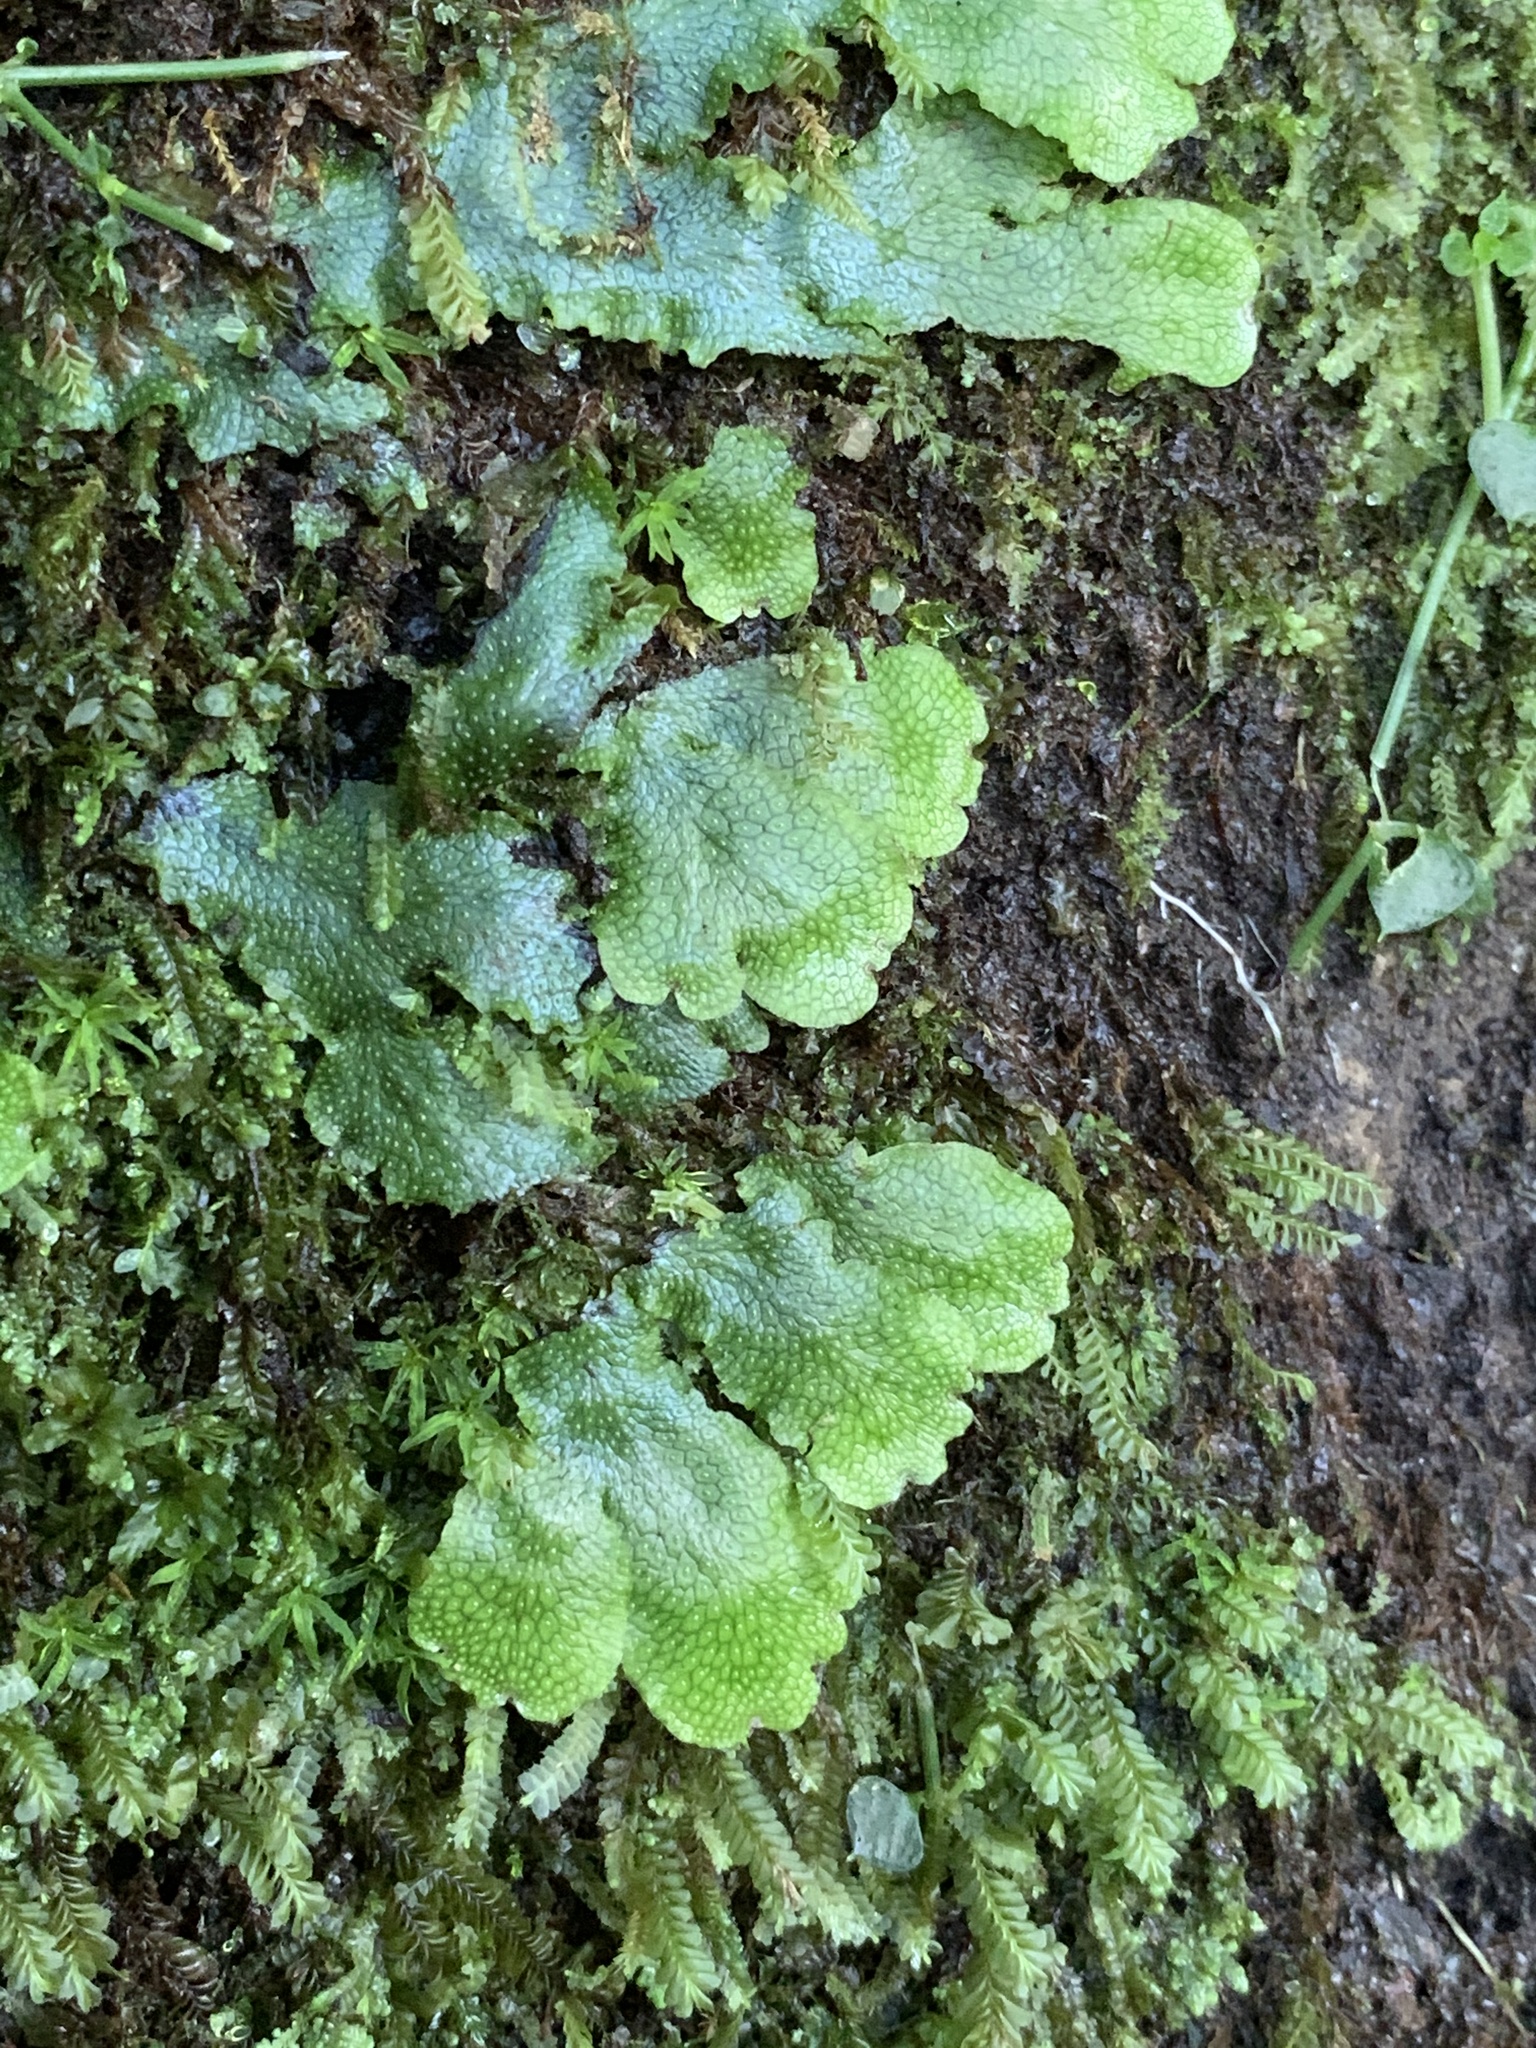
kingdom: Plantae
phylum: Marchantiophyta
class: Marchantiopsida
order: Marchantiales
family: Conocephalaceae
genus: Conocephalum
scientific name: Conocephalum conicum
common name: Great scented liverwort
